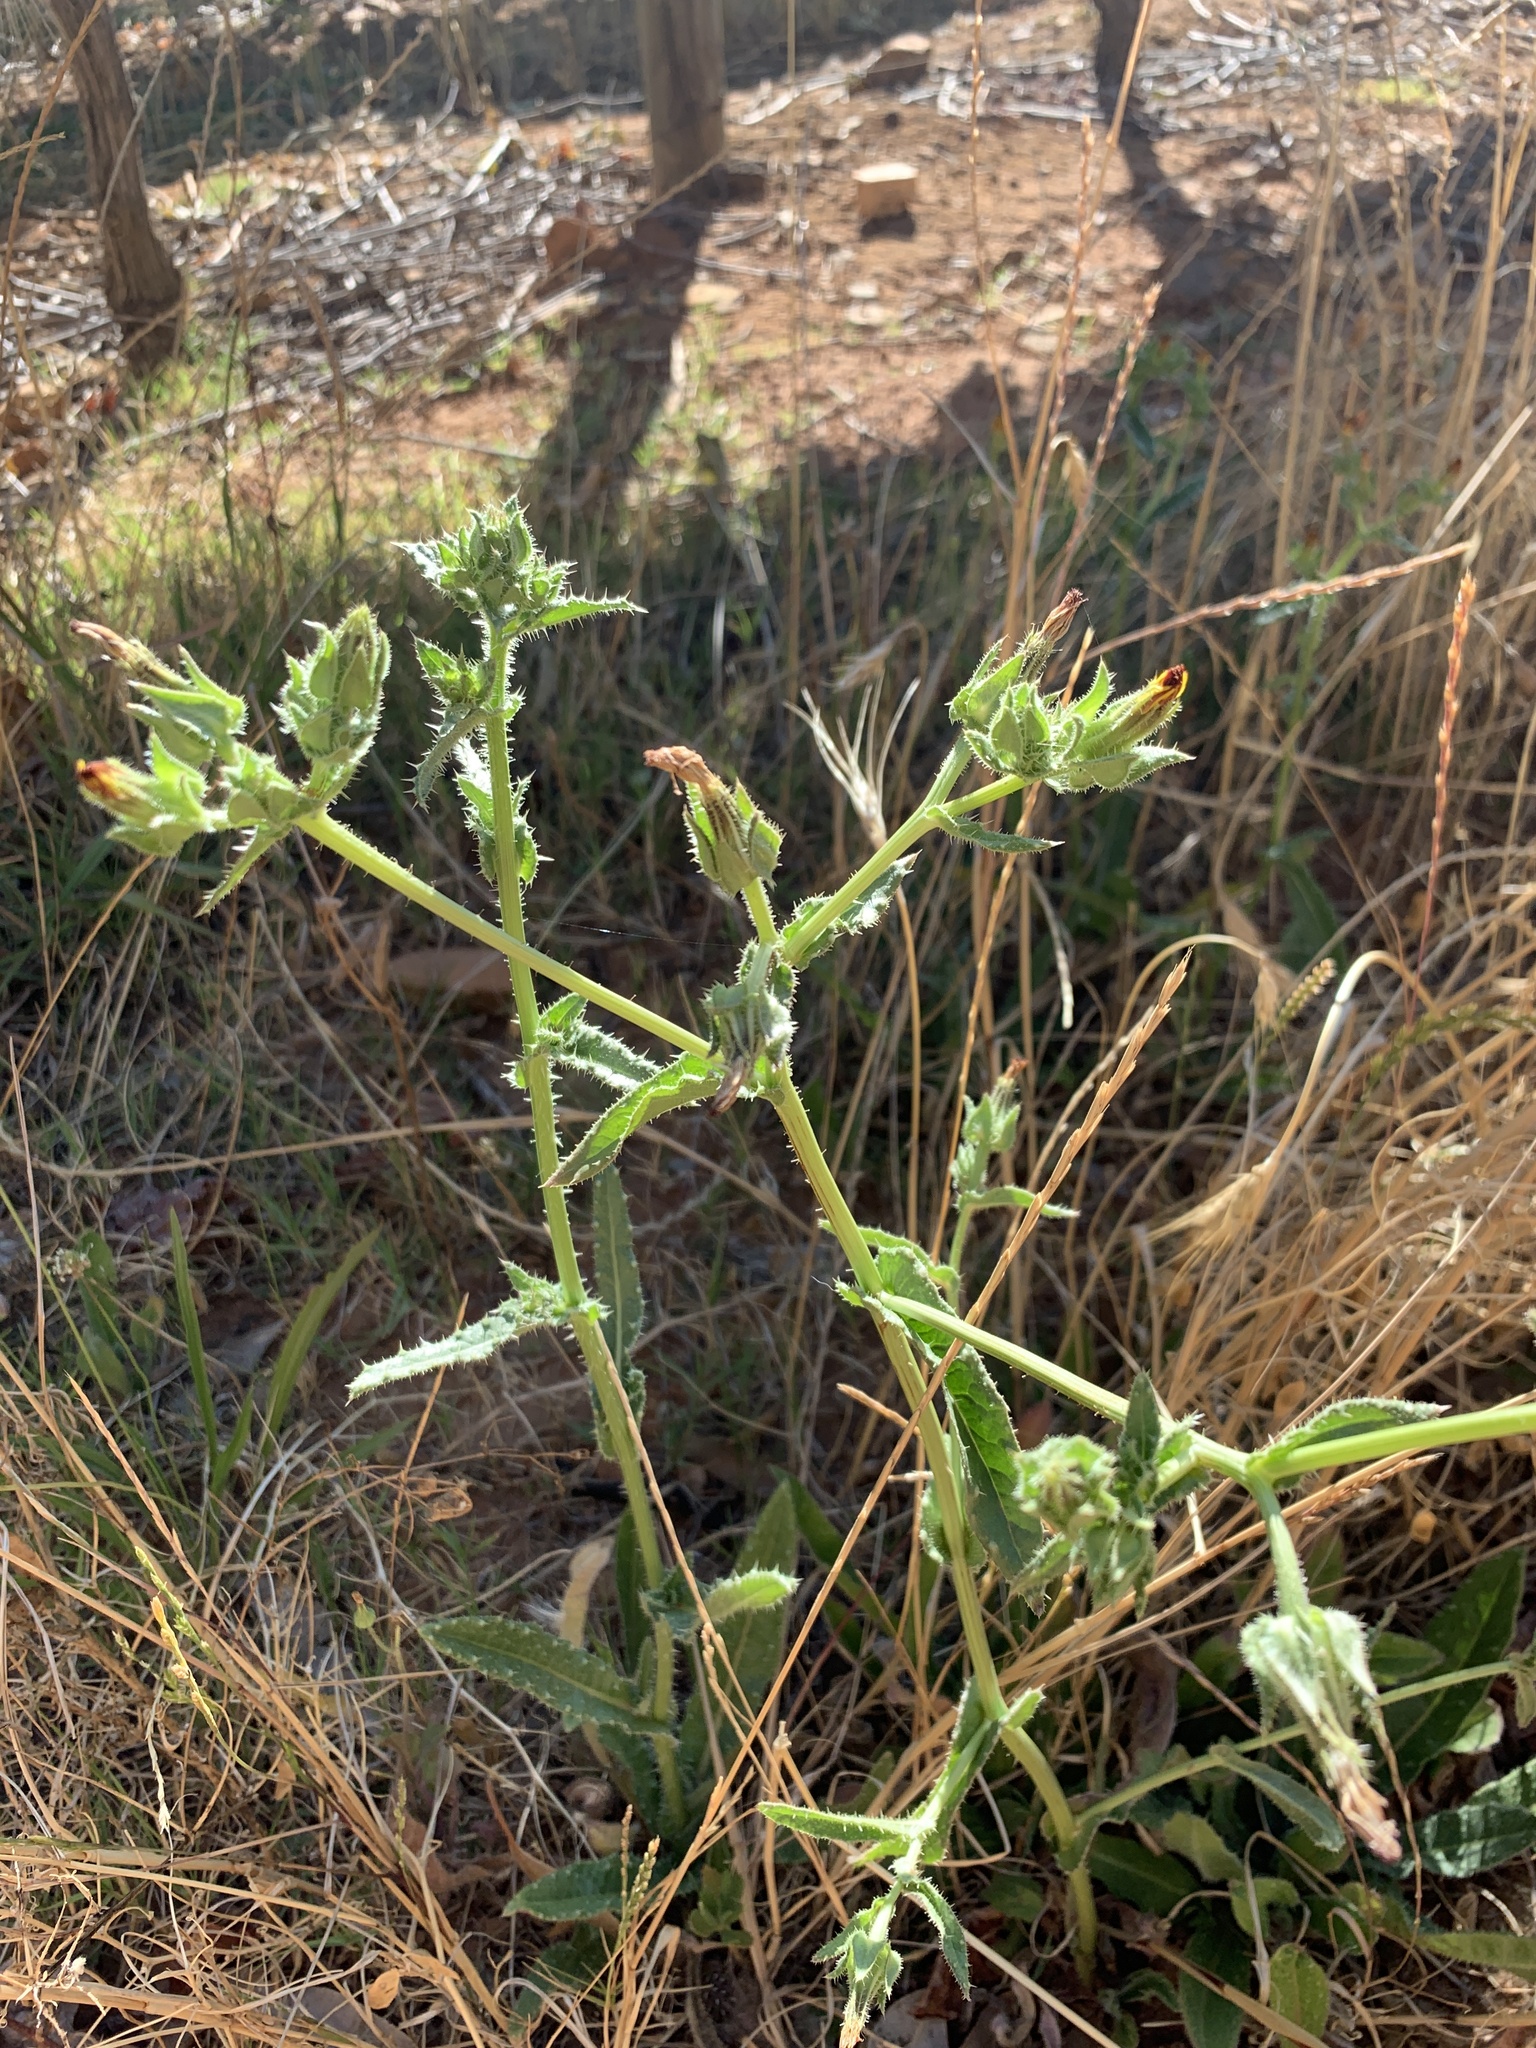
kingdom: Plantae
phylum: Tracheophyta
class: Magnoliopsida
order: Asterales
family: Asteraceae
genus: Helminthotheca
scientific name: Helminthotheca echioides
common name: Ox-tongue
